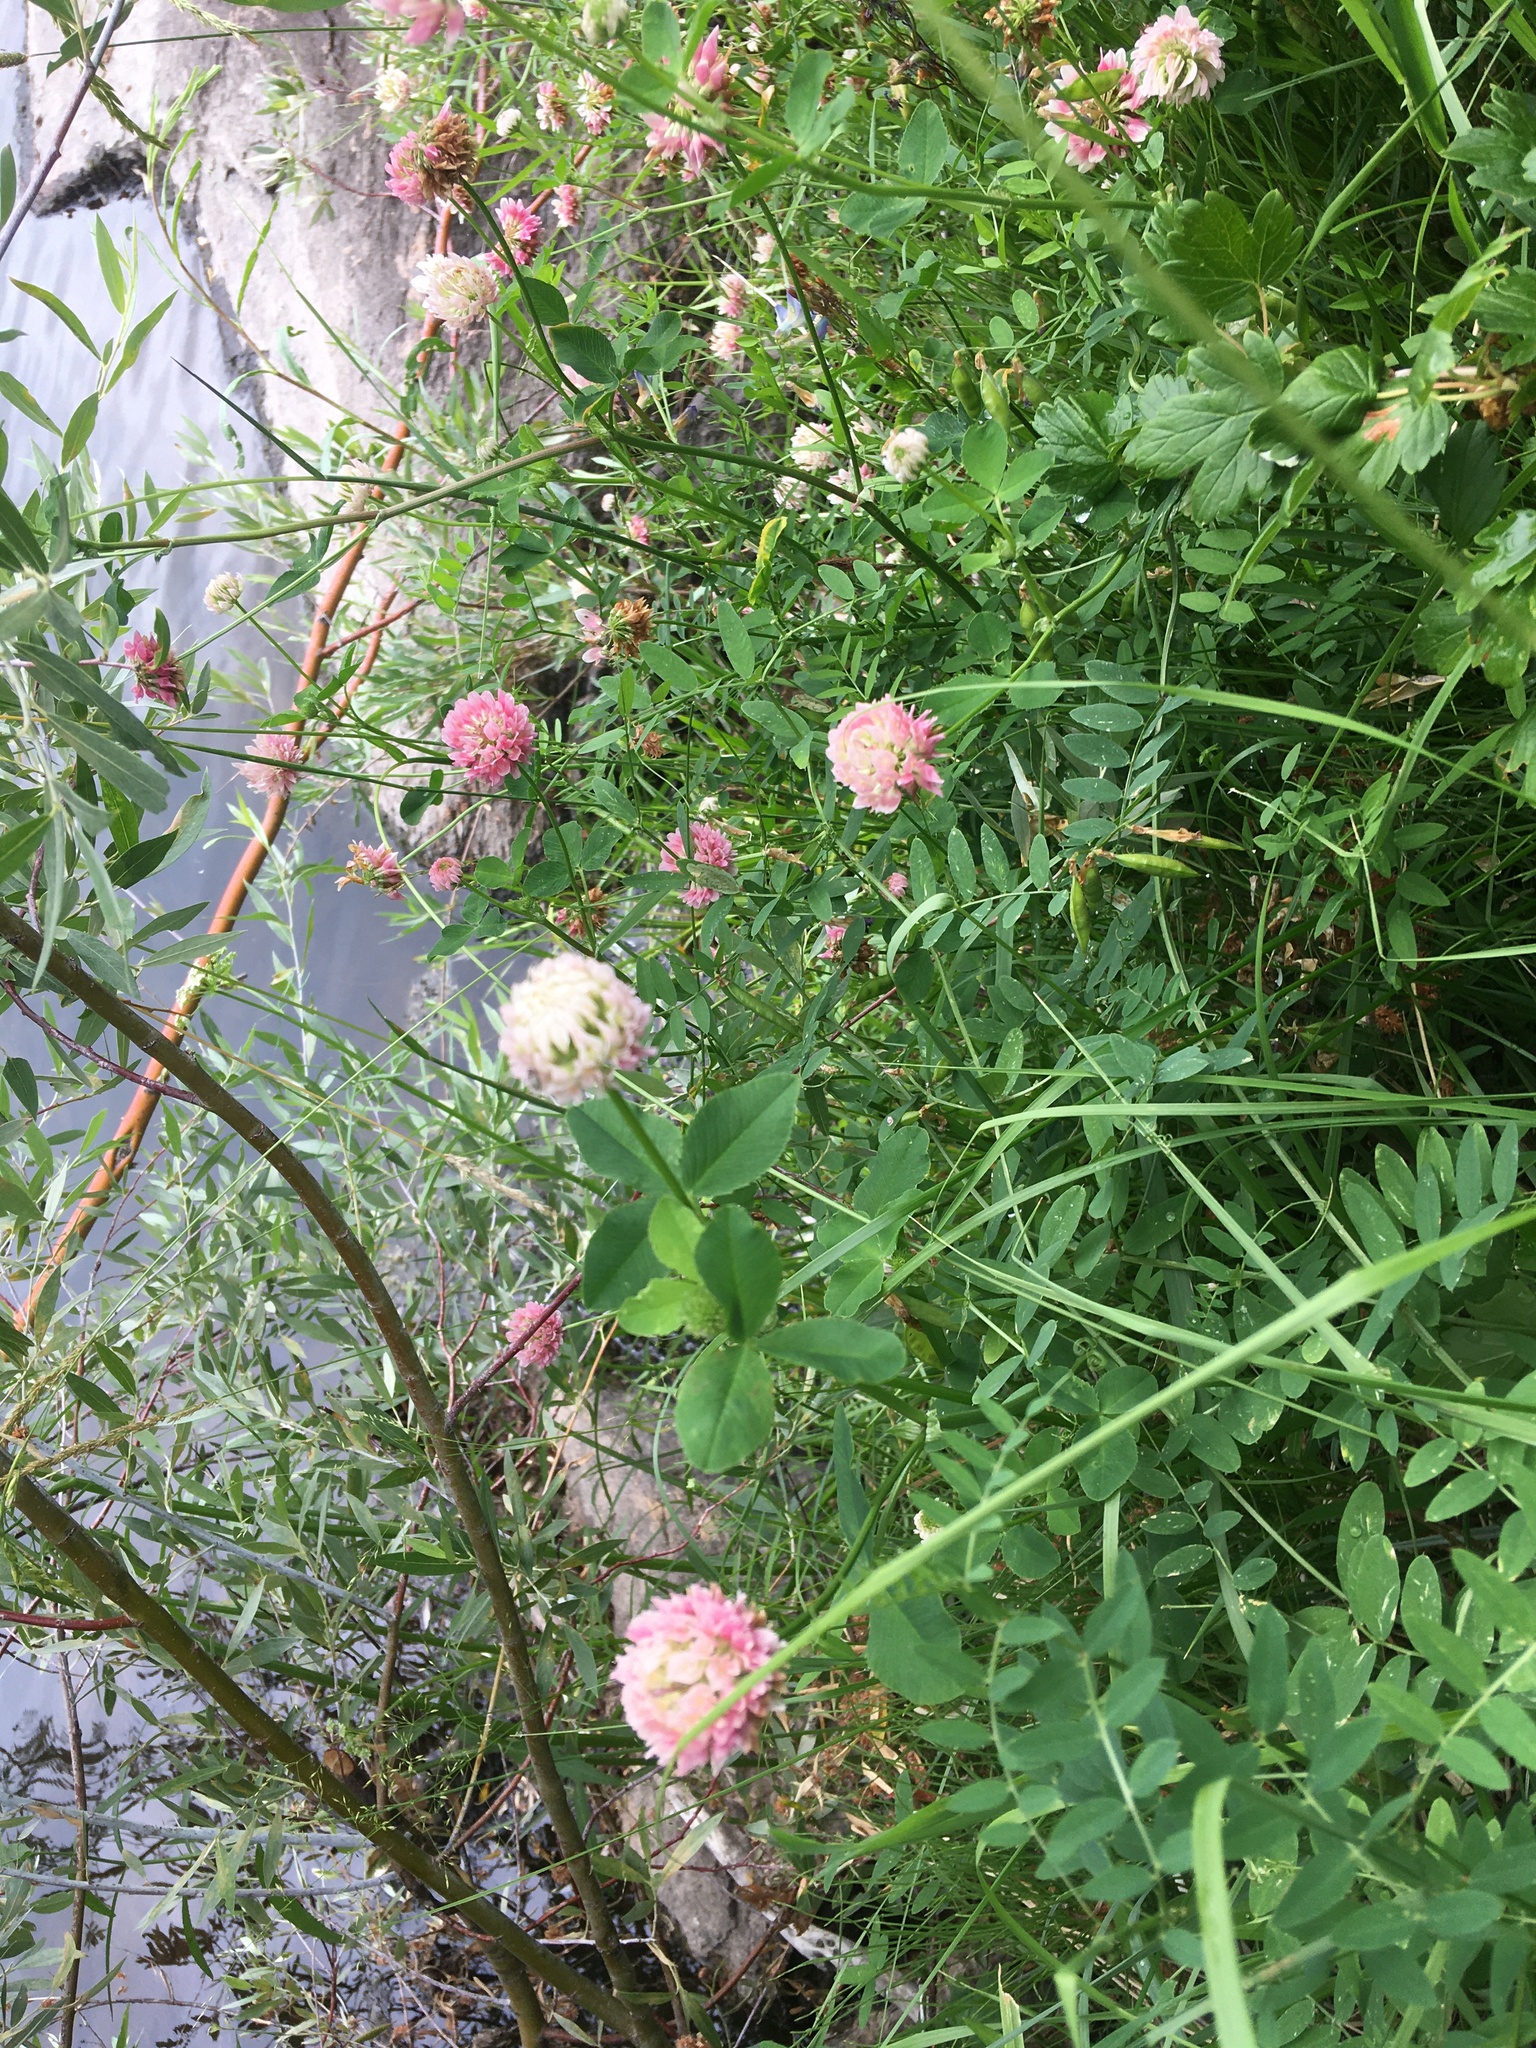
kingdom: Plantae
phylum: Tracheophyta
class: Magnoliopsida
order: Fabales
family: Fabaceae
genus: Trifolium
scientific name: Trifolium hybridum
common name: Alsike clover
